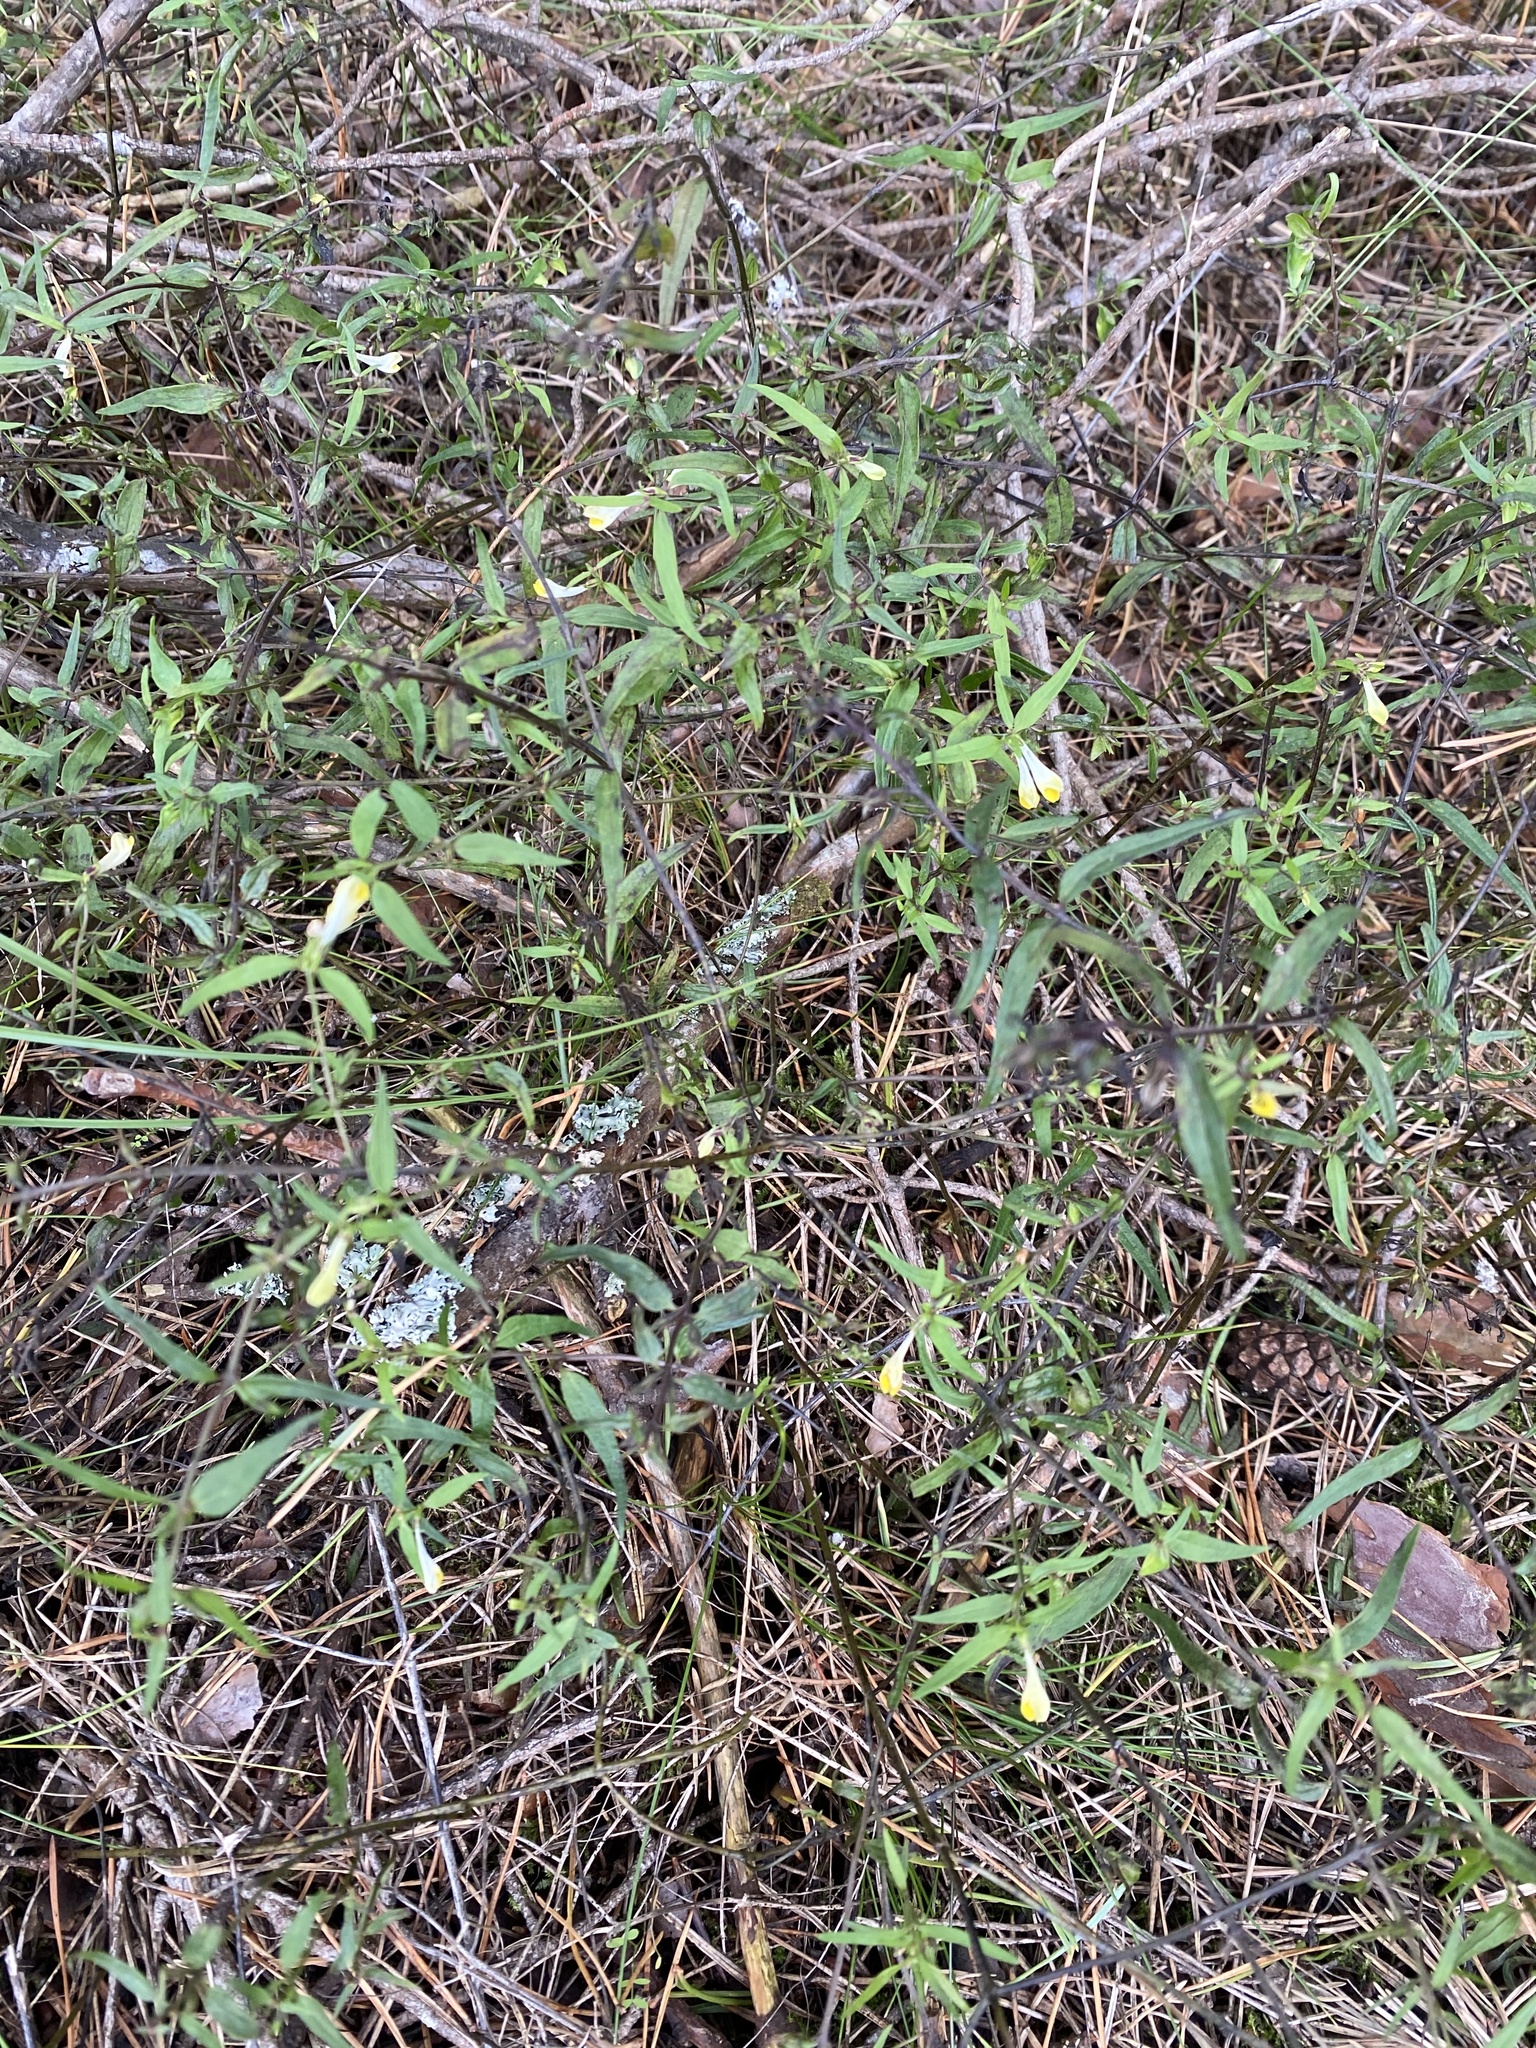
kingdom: Plantae
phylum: Tracheophyta
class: Magnoliopsida
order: Lamiales
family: Orobanchaceae
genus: Melampyrum
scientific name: Melampyrum pratense
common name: Common cow-wheat
